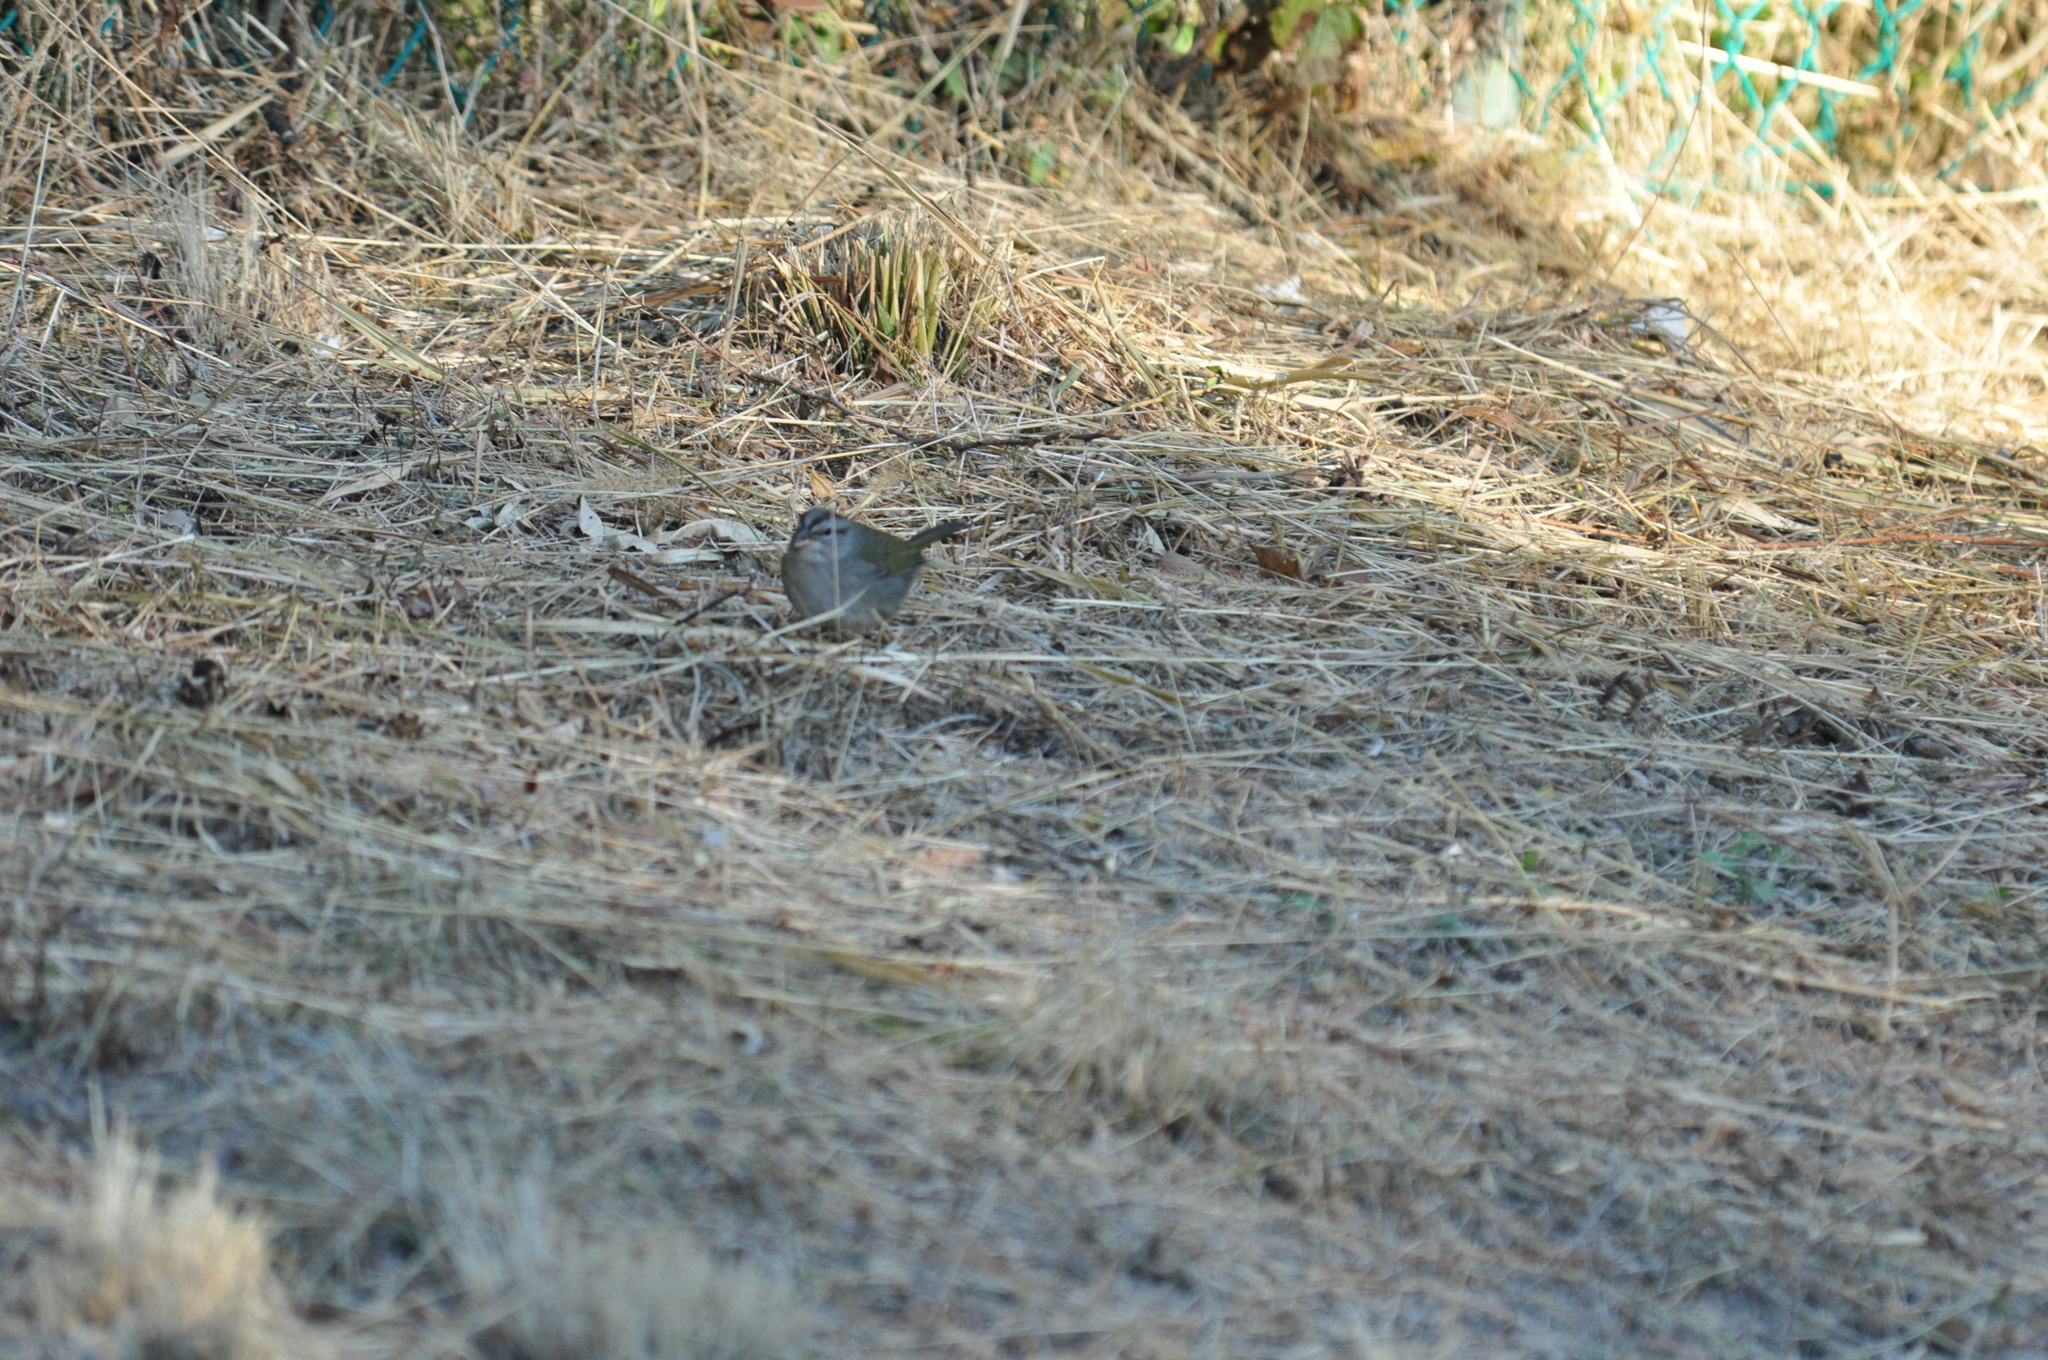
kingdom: Animalia
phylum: Chordata
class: Aves
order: Passeriformes
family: Passerellidae
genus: Arremonops
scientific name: Arremonops rufivirgatus
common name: Olive sparrow
